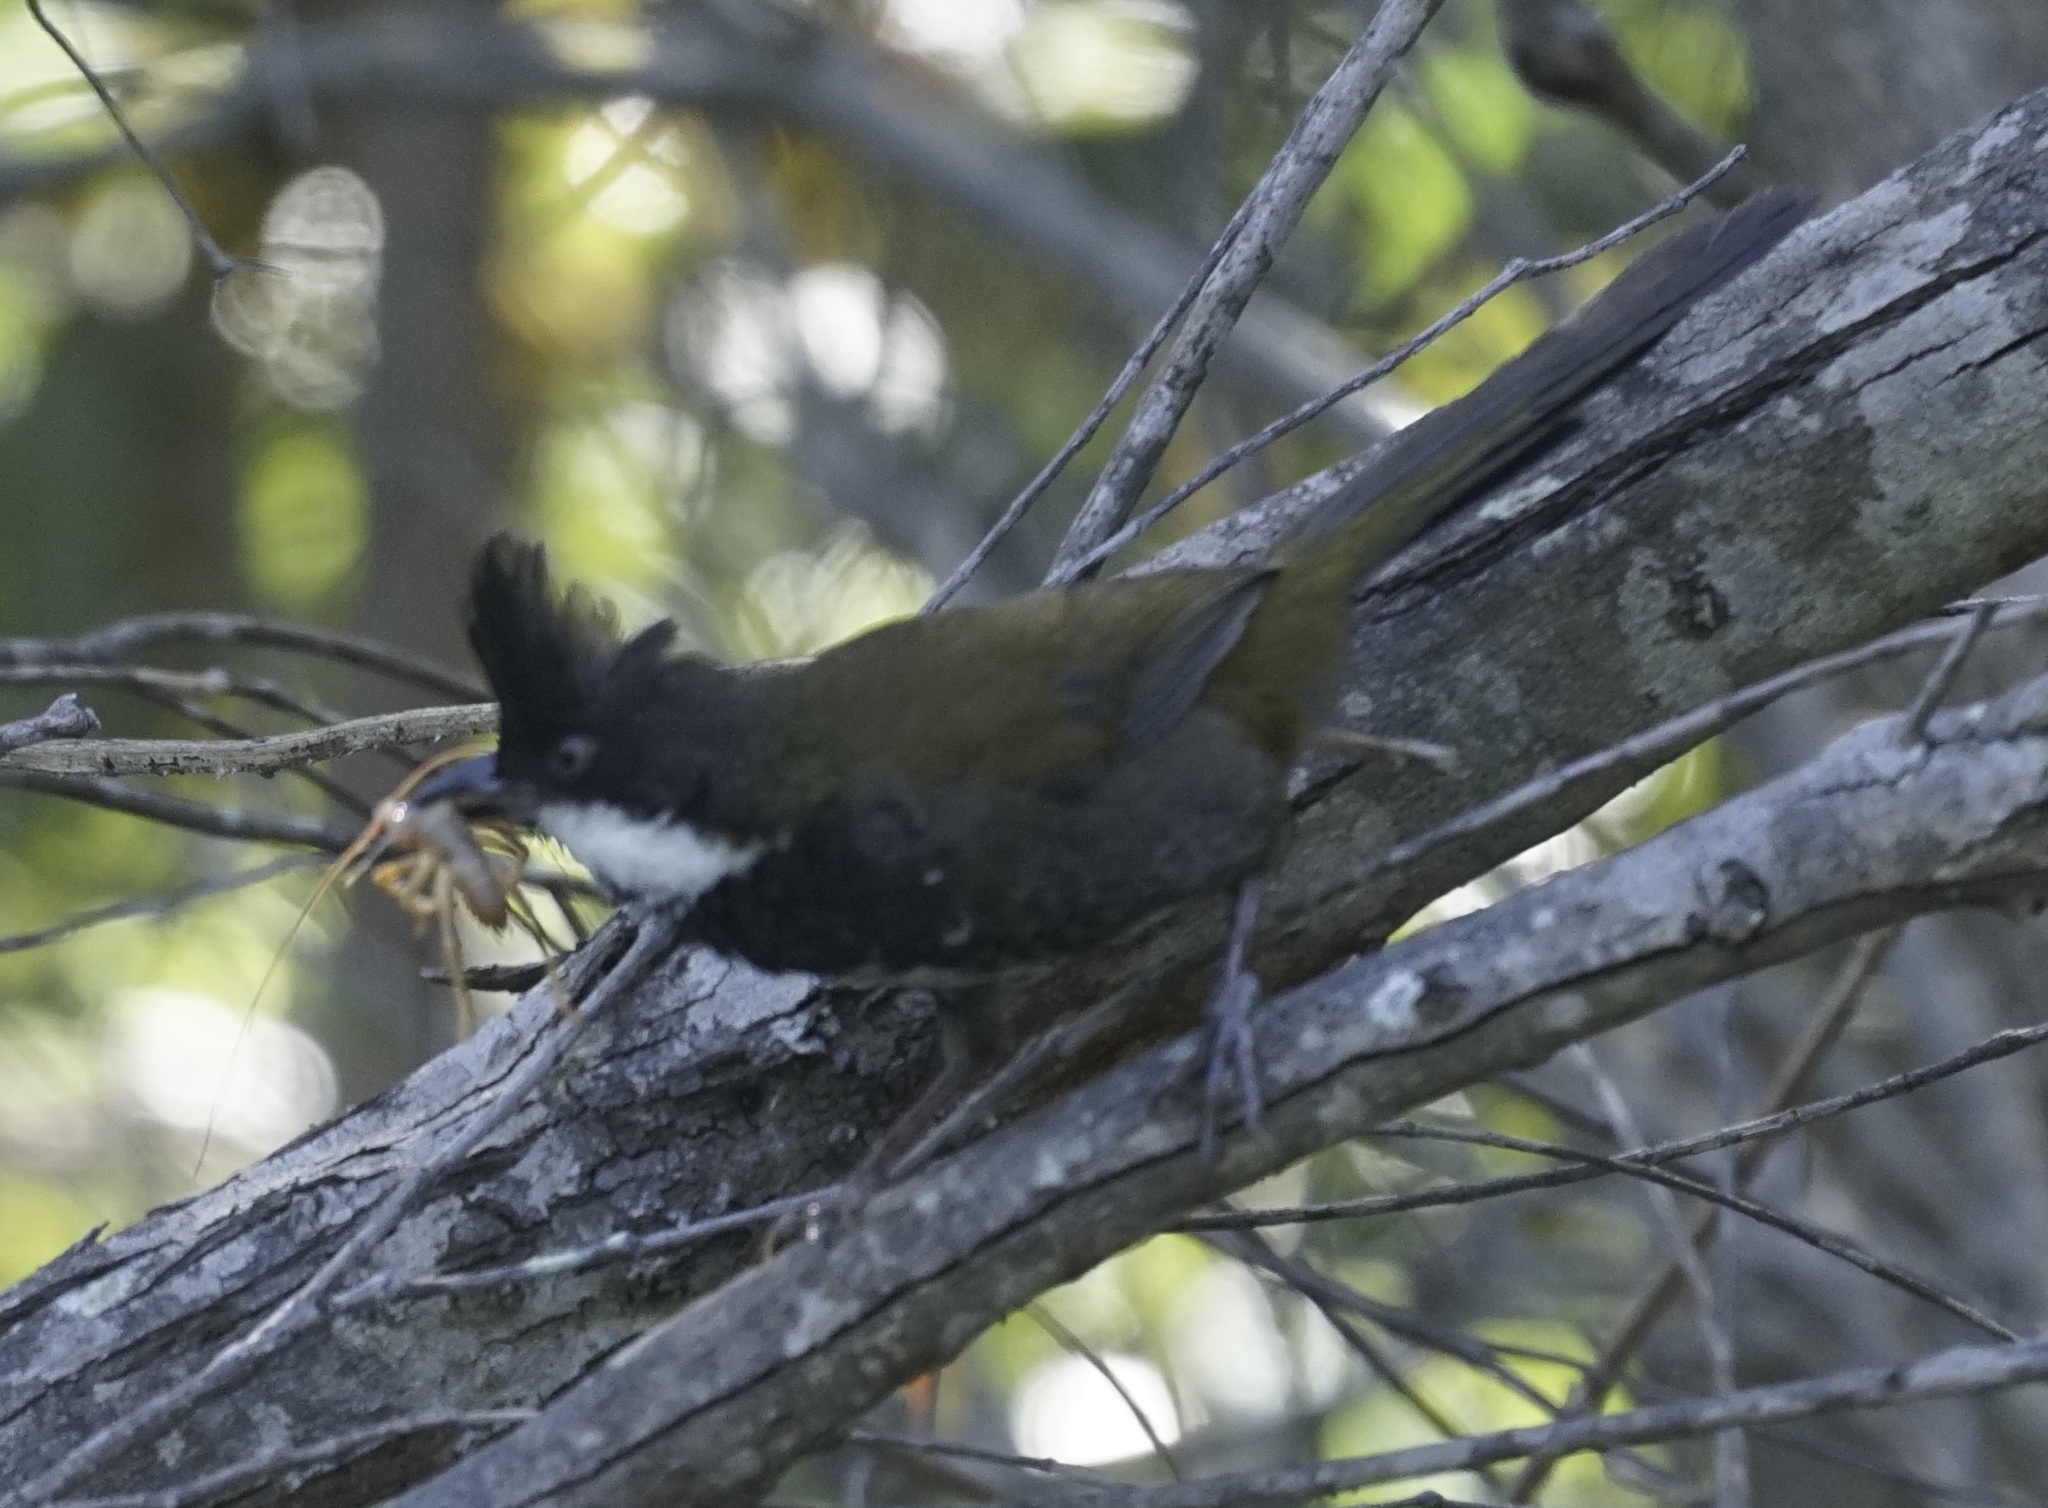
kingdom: Animalia
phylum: Chordata
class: Aves
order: Passeriformes
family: Psophodidae
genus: Psophodes
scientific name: Psophodes olivaceus
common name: Eastern whipbird
